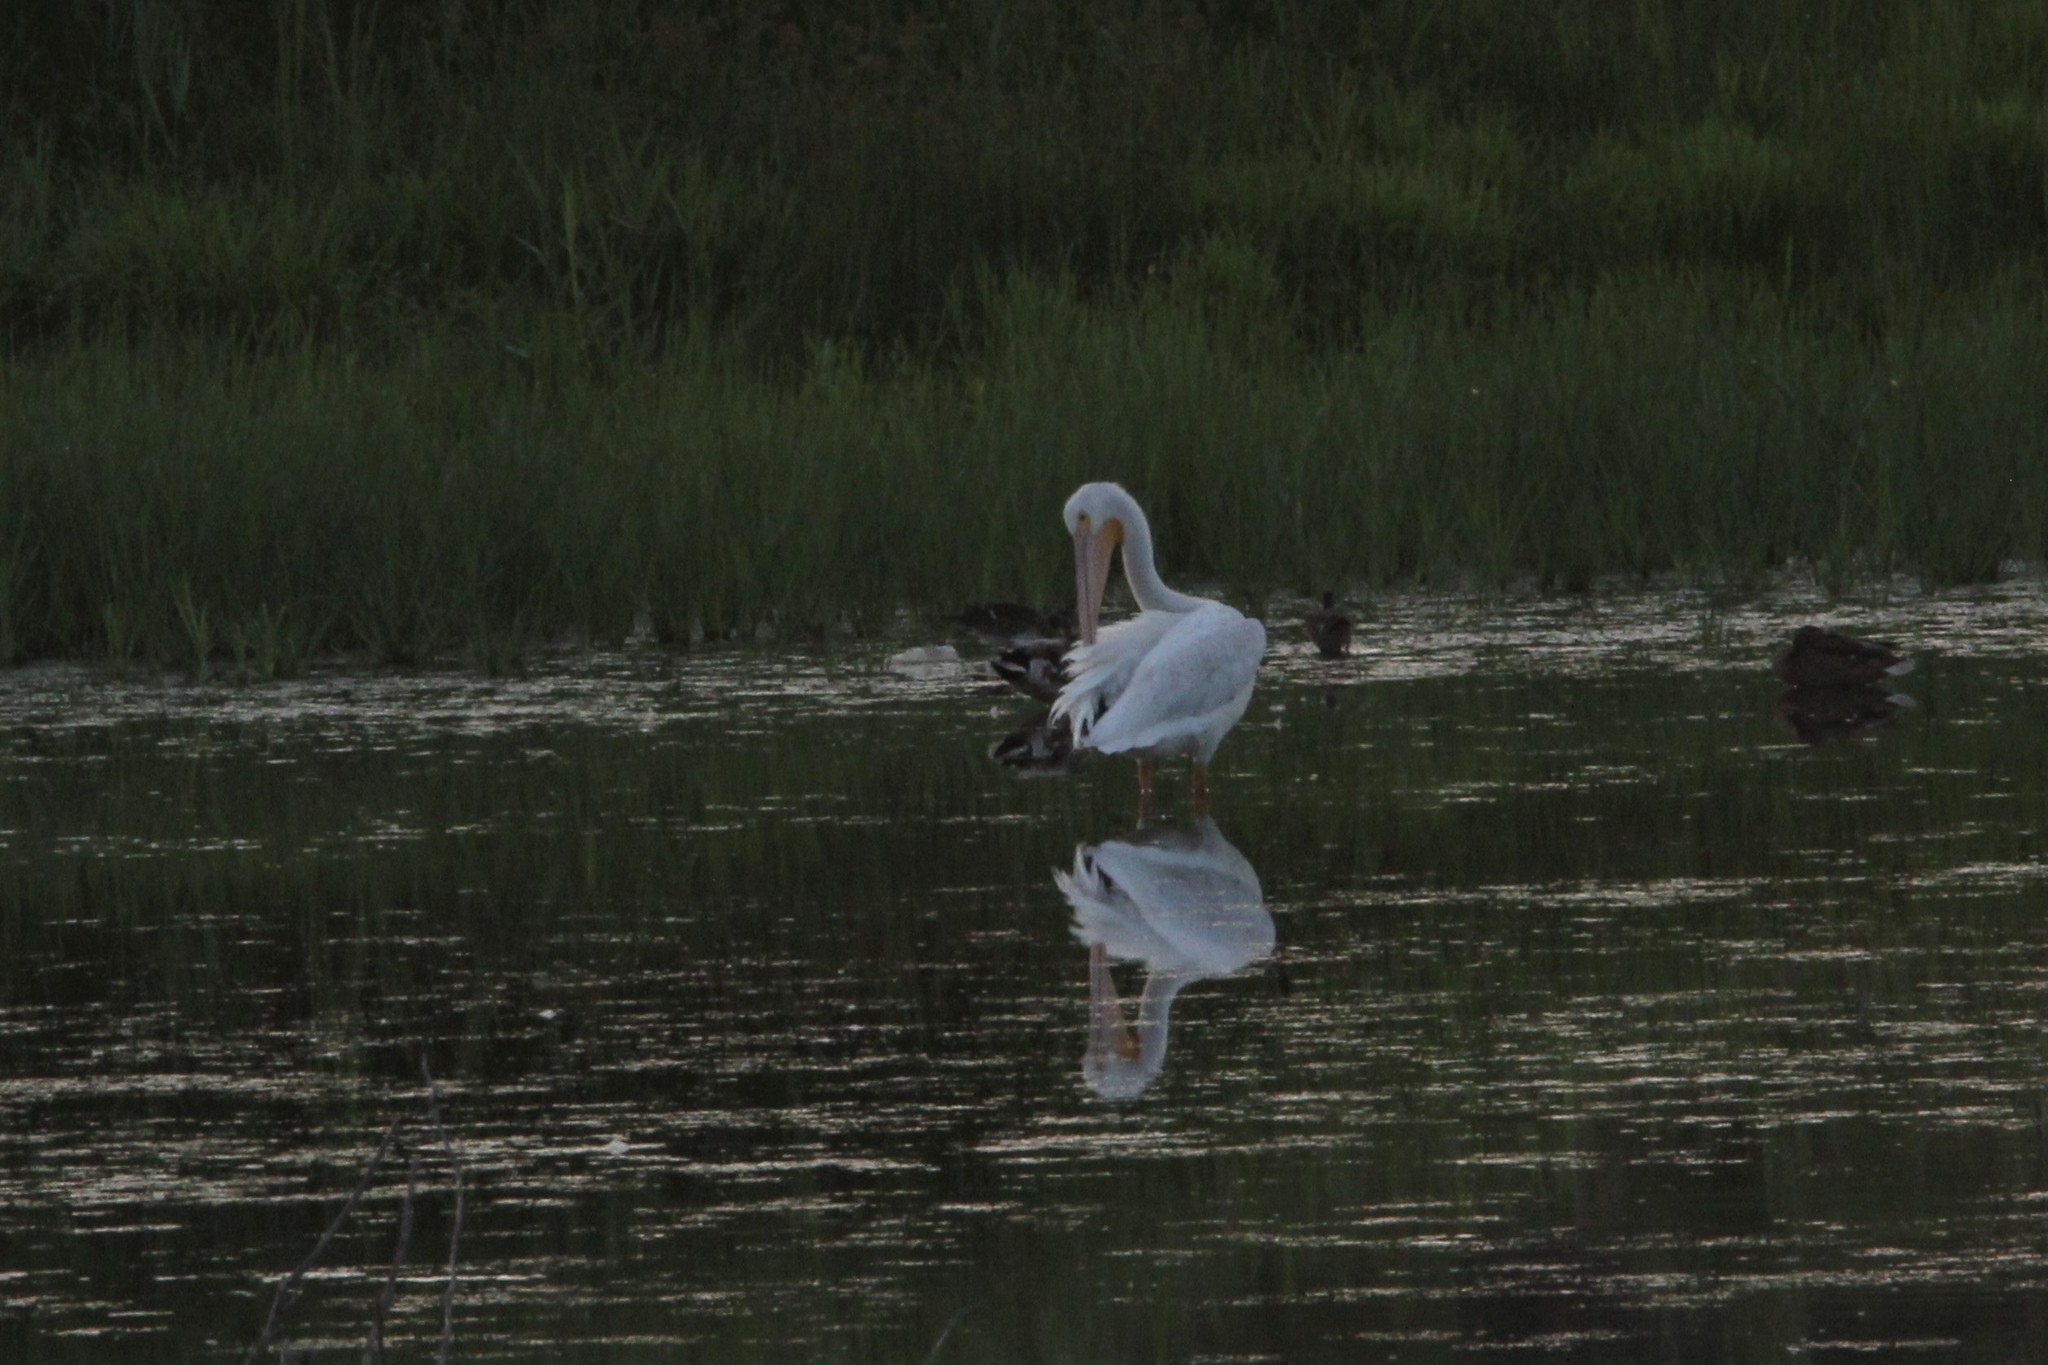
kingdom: Animalia
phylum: Chordata
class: Aves
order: Pelecaniformes
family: Pelecanidae
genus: Pelecanus
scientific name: Pelecanus erythrorhynchos
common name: American white pelican
